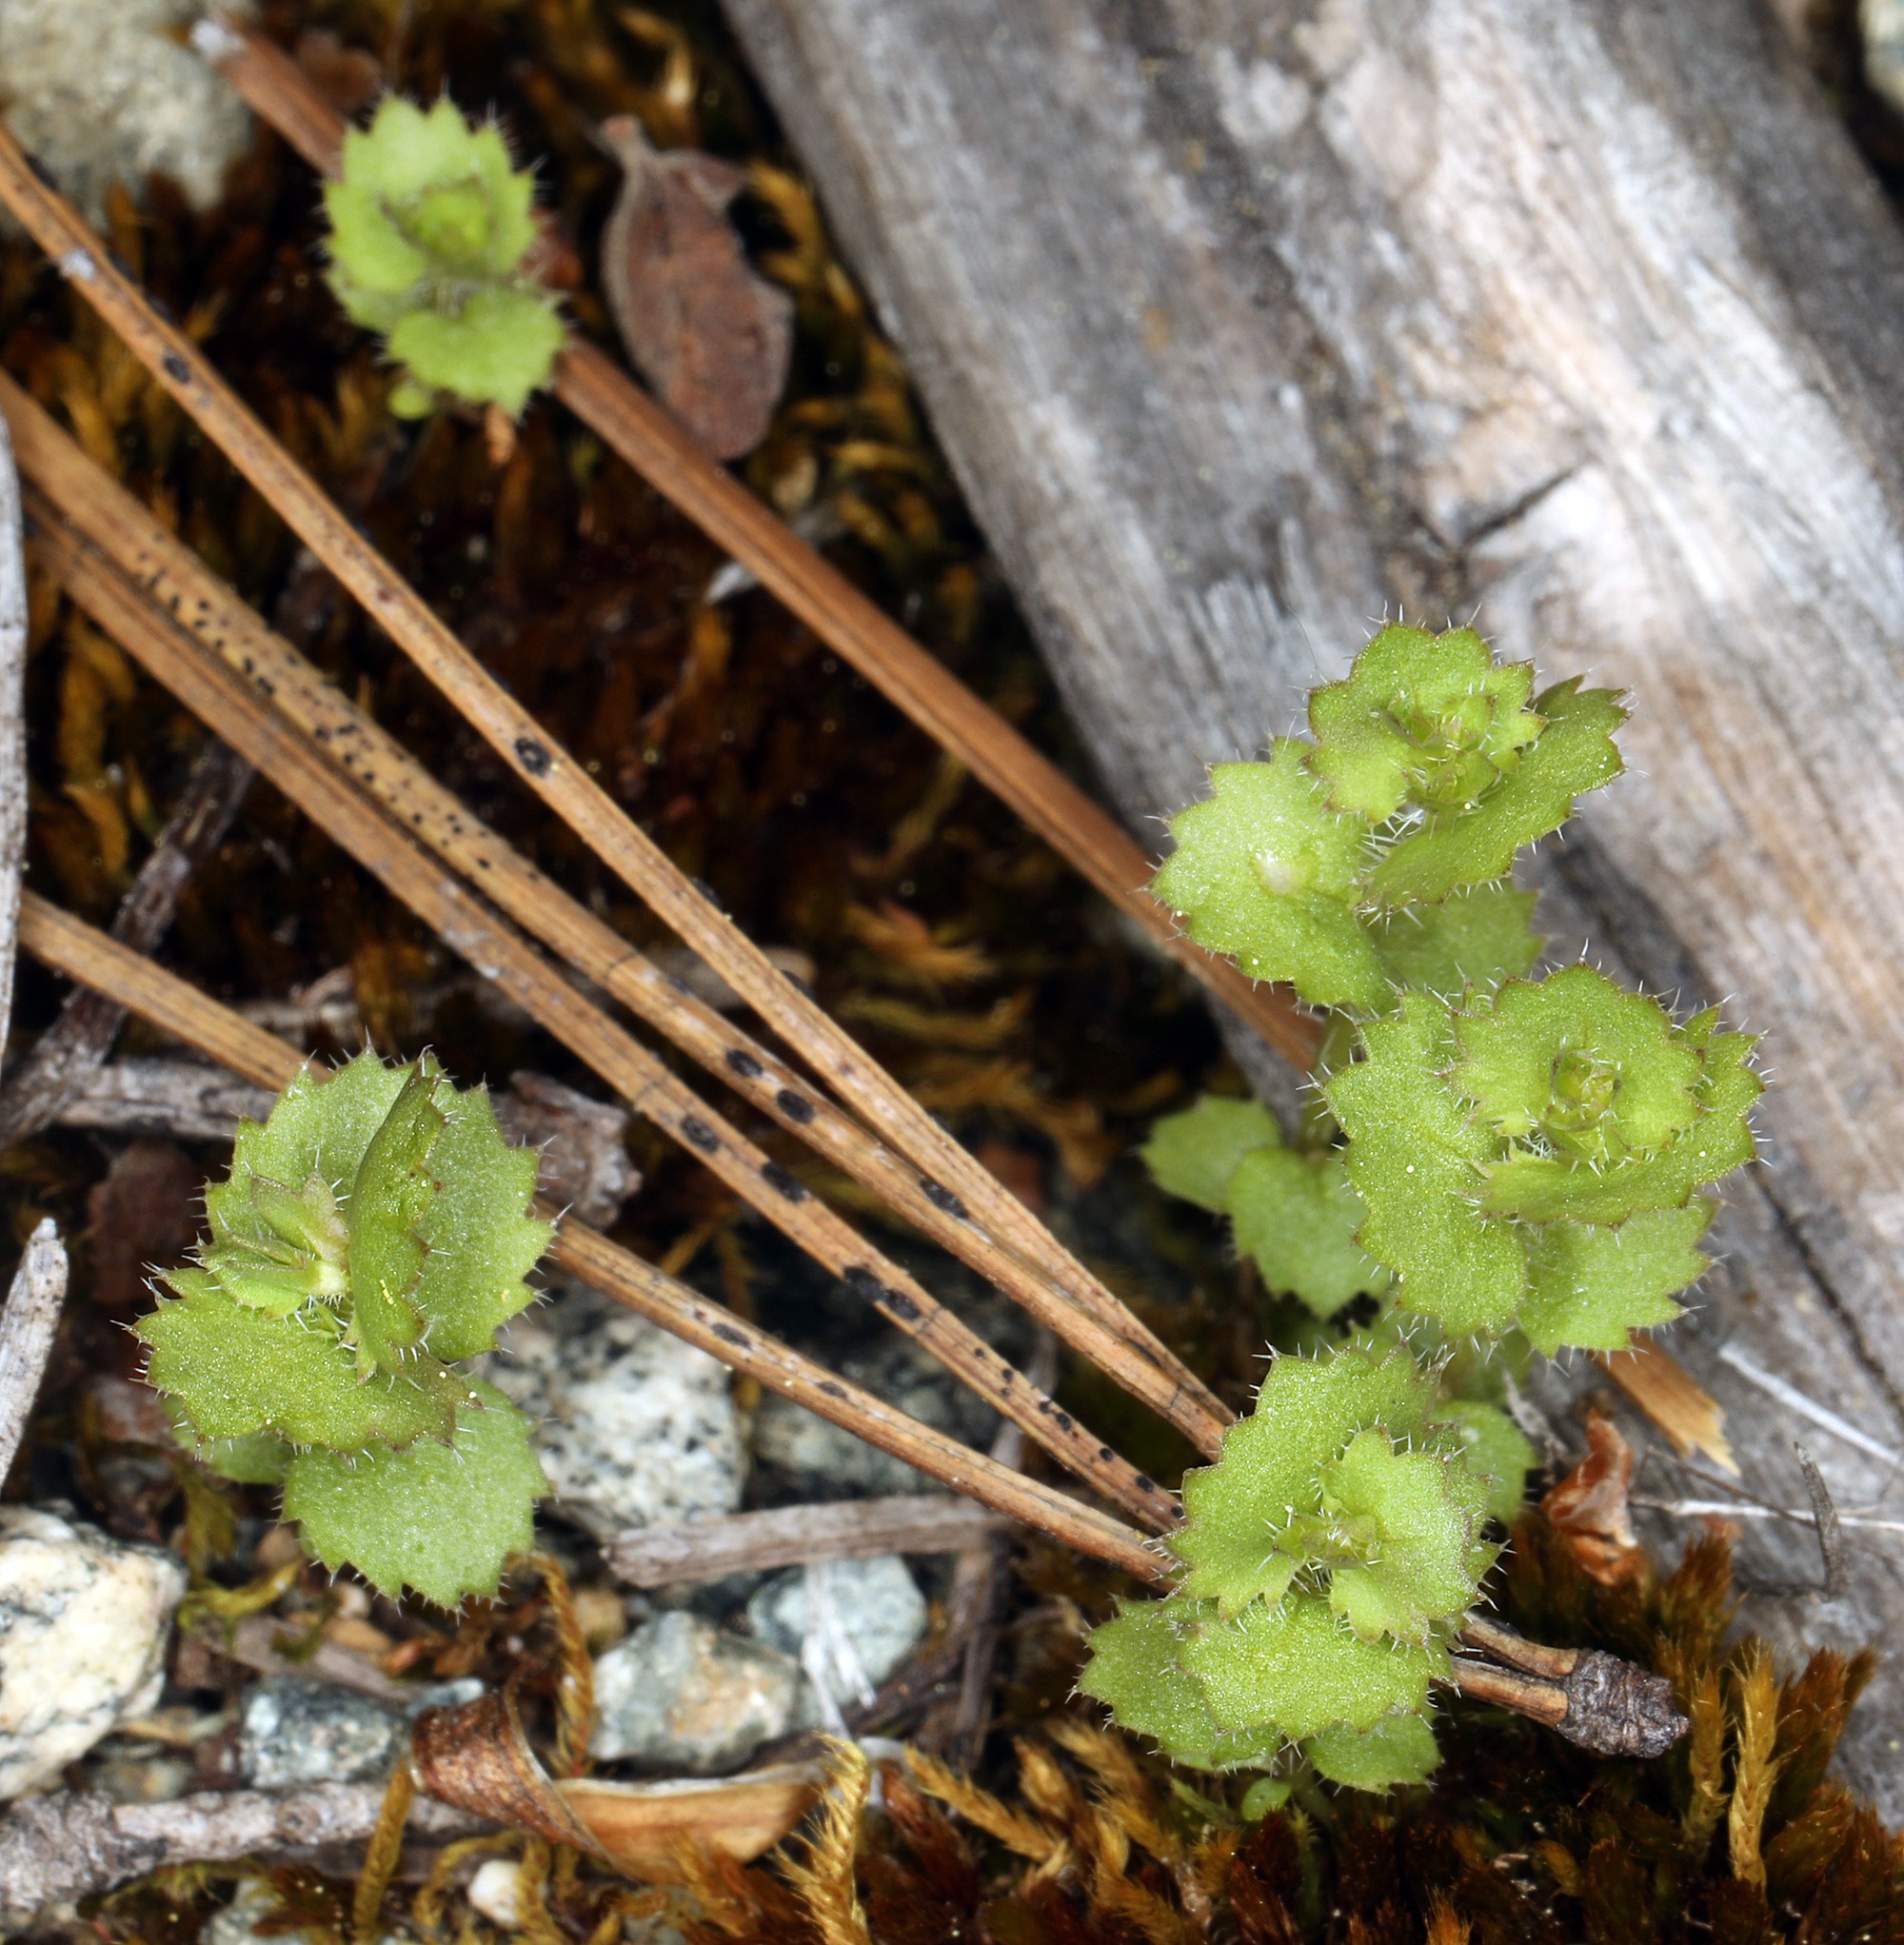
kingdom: Plantae
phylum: Tracheophyta
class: Magnoliopsida
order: Asterales
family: Campanulaceae
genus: Heterocodon
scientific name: Heterocodon rariflorum
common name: Rareflower heterocodon
